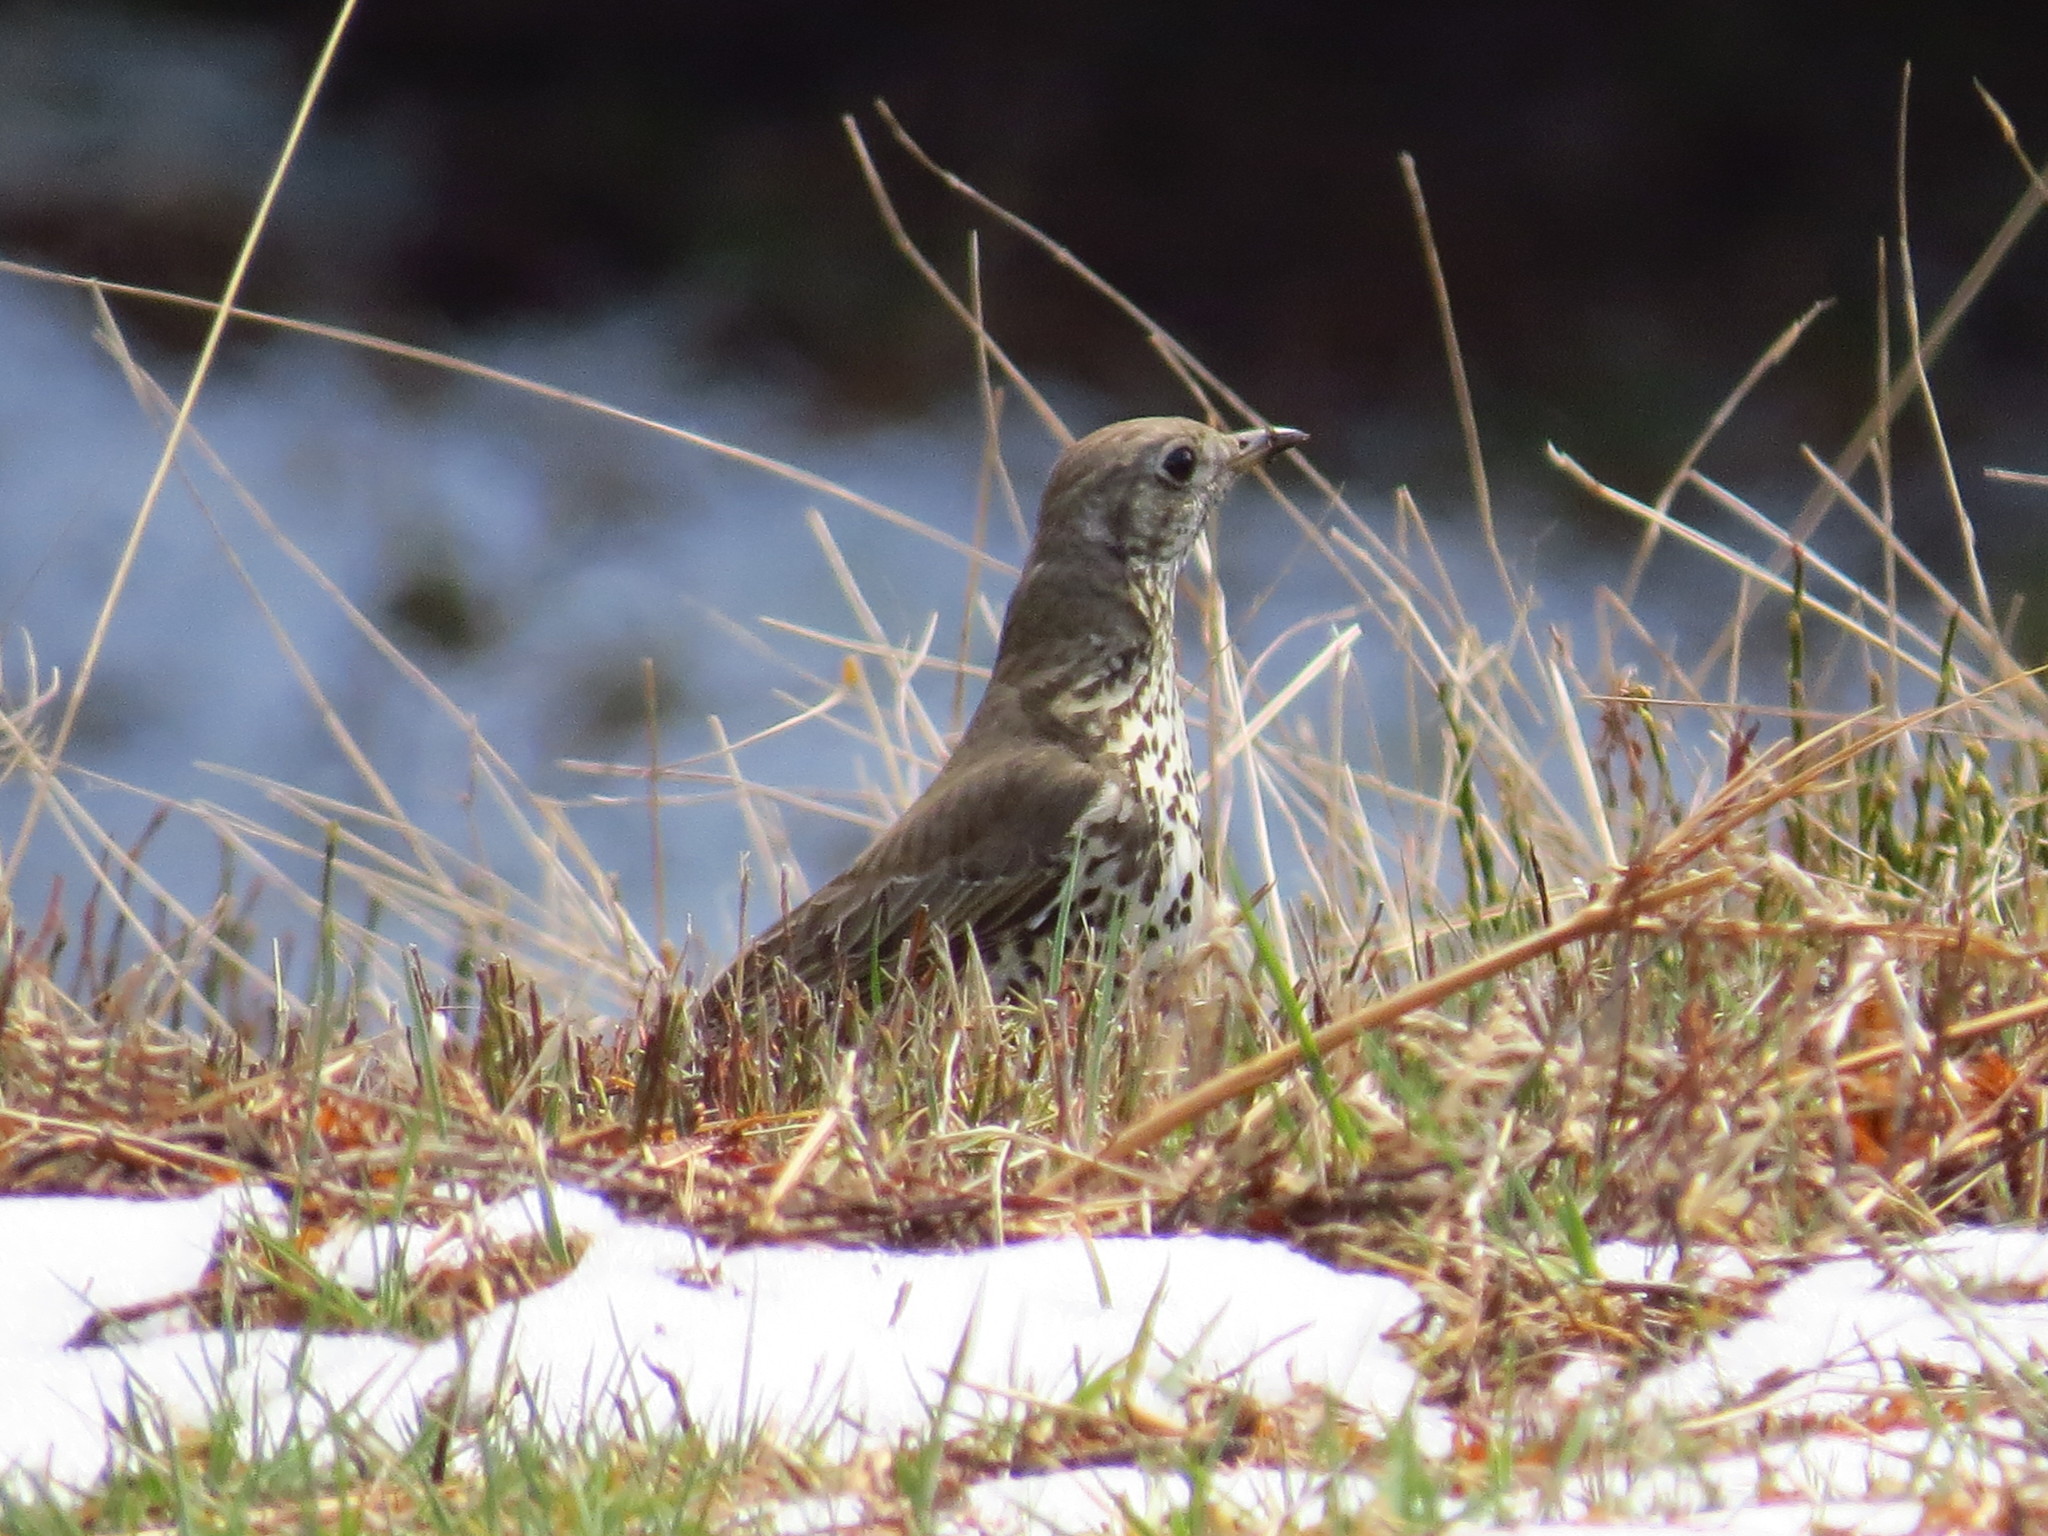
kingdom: Animalia
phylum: Chordata
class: Aves
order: Passeriformes
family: Turdidae
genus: Turdus
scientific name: Turdus viscivorus
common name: Mistle thrush
